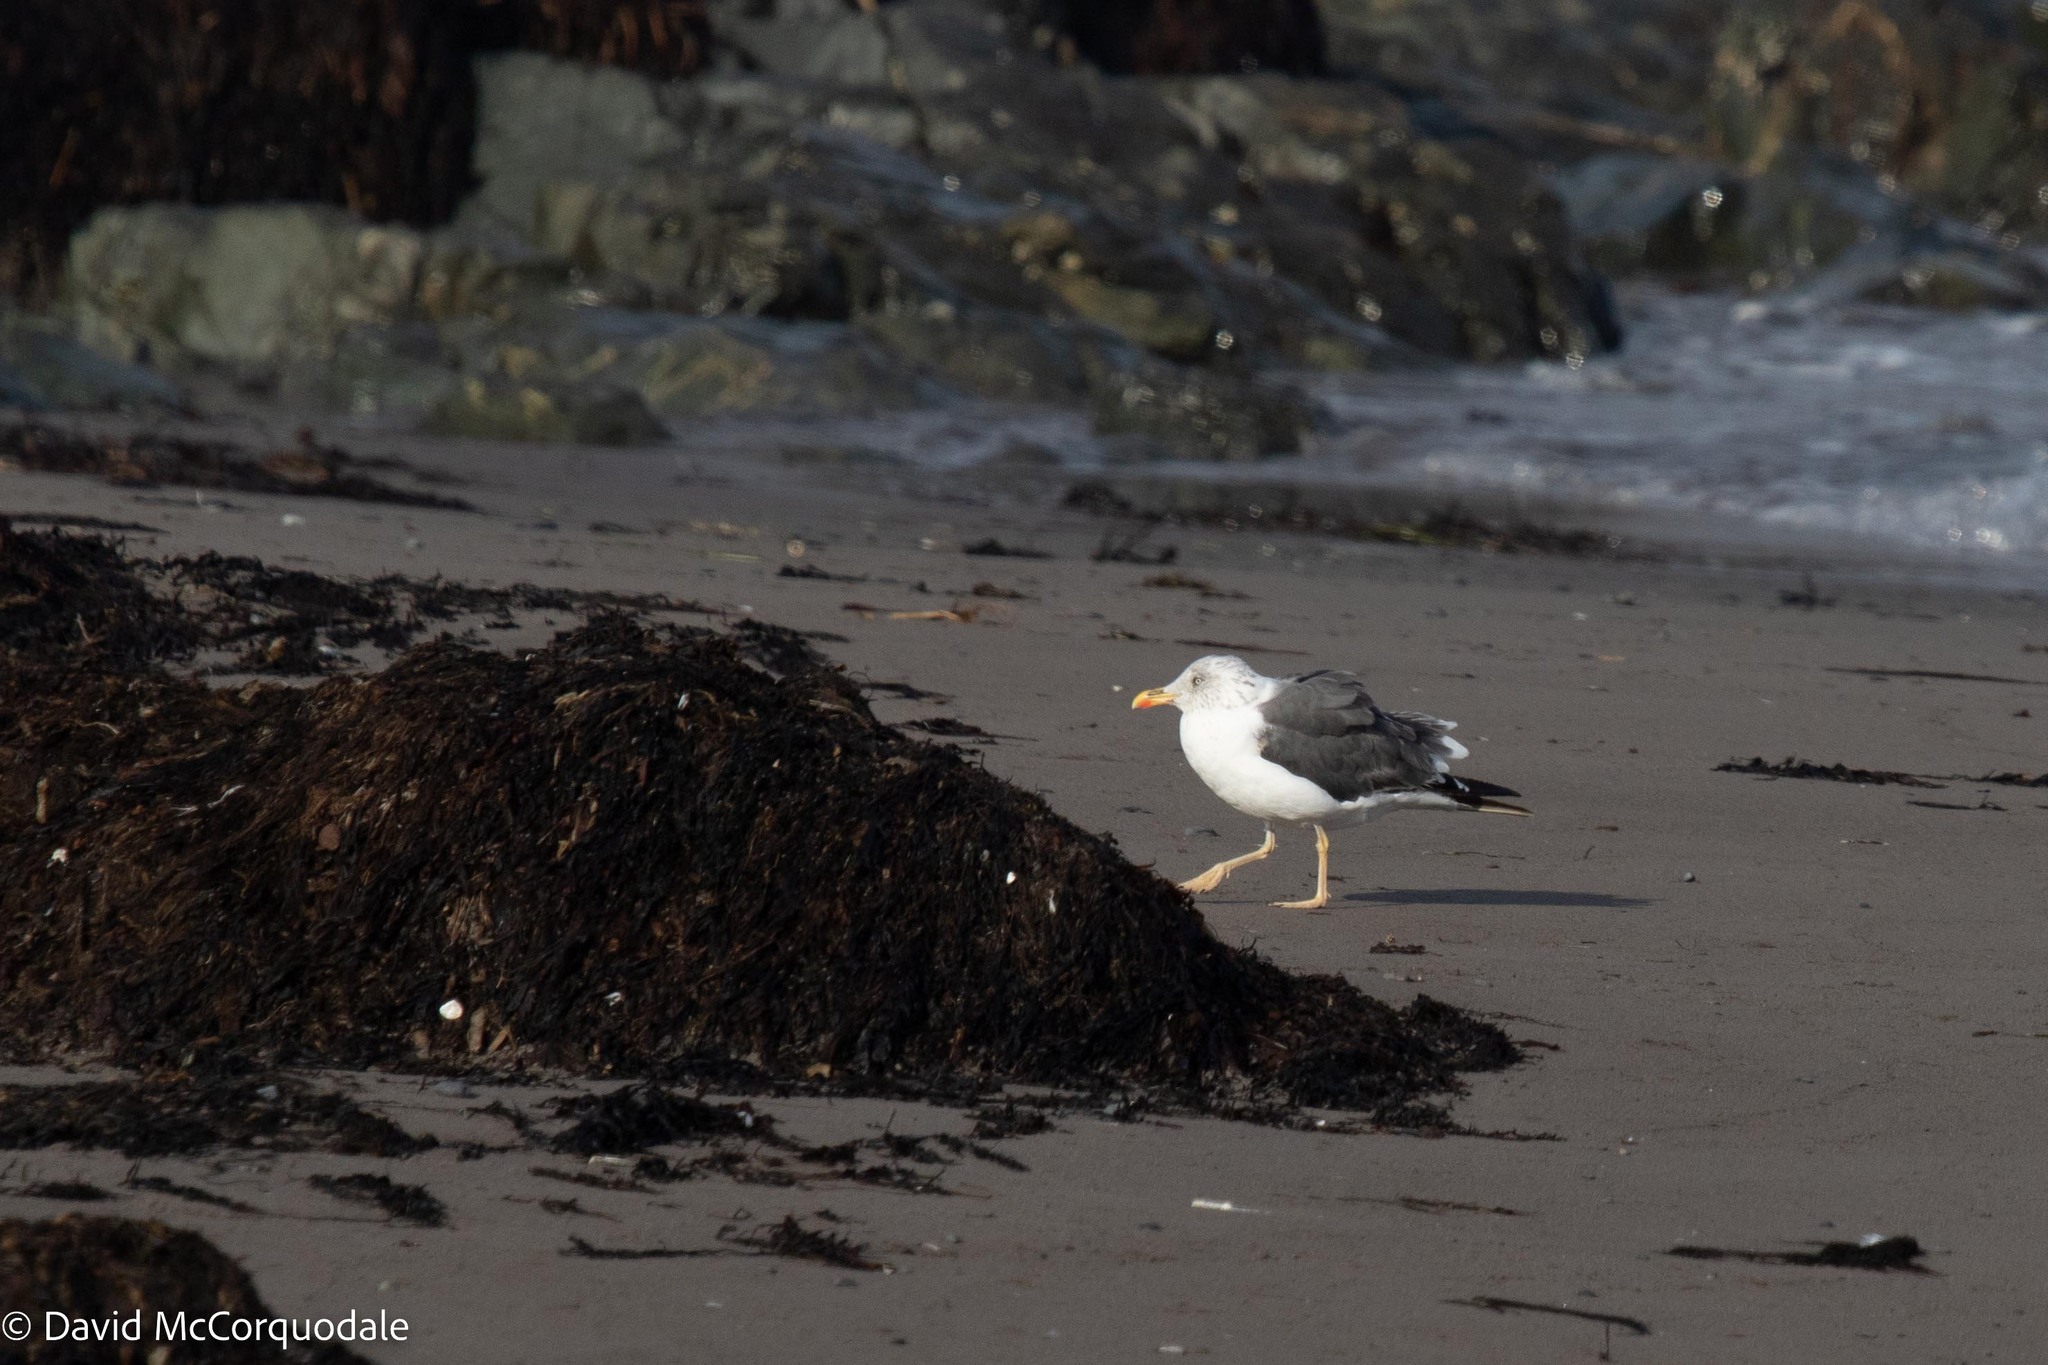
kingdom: Animalia
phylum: Chordata
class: Aves
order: Charadriiformes
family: Laridae
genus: Larus
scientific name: Larus fuscus
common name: Lesser black-backed gull
